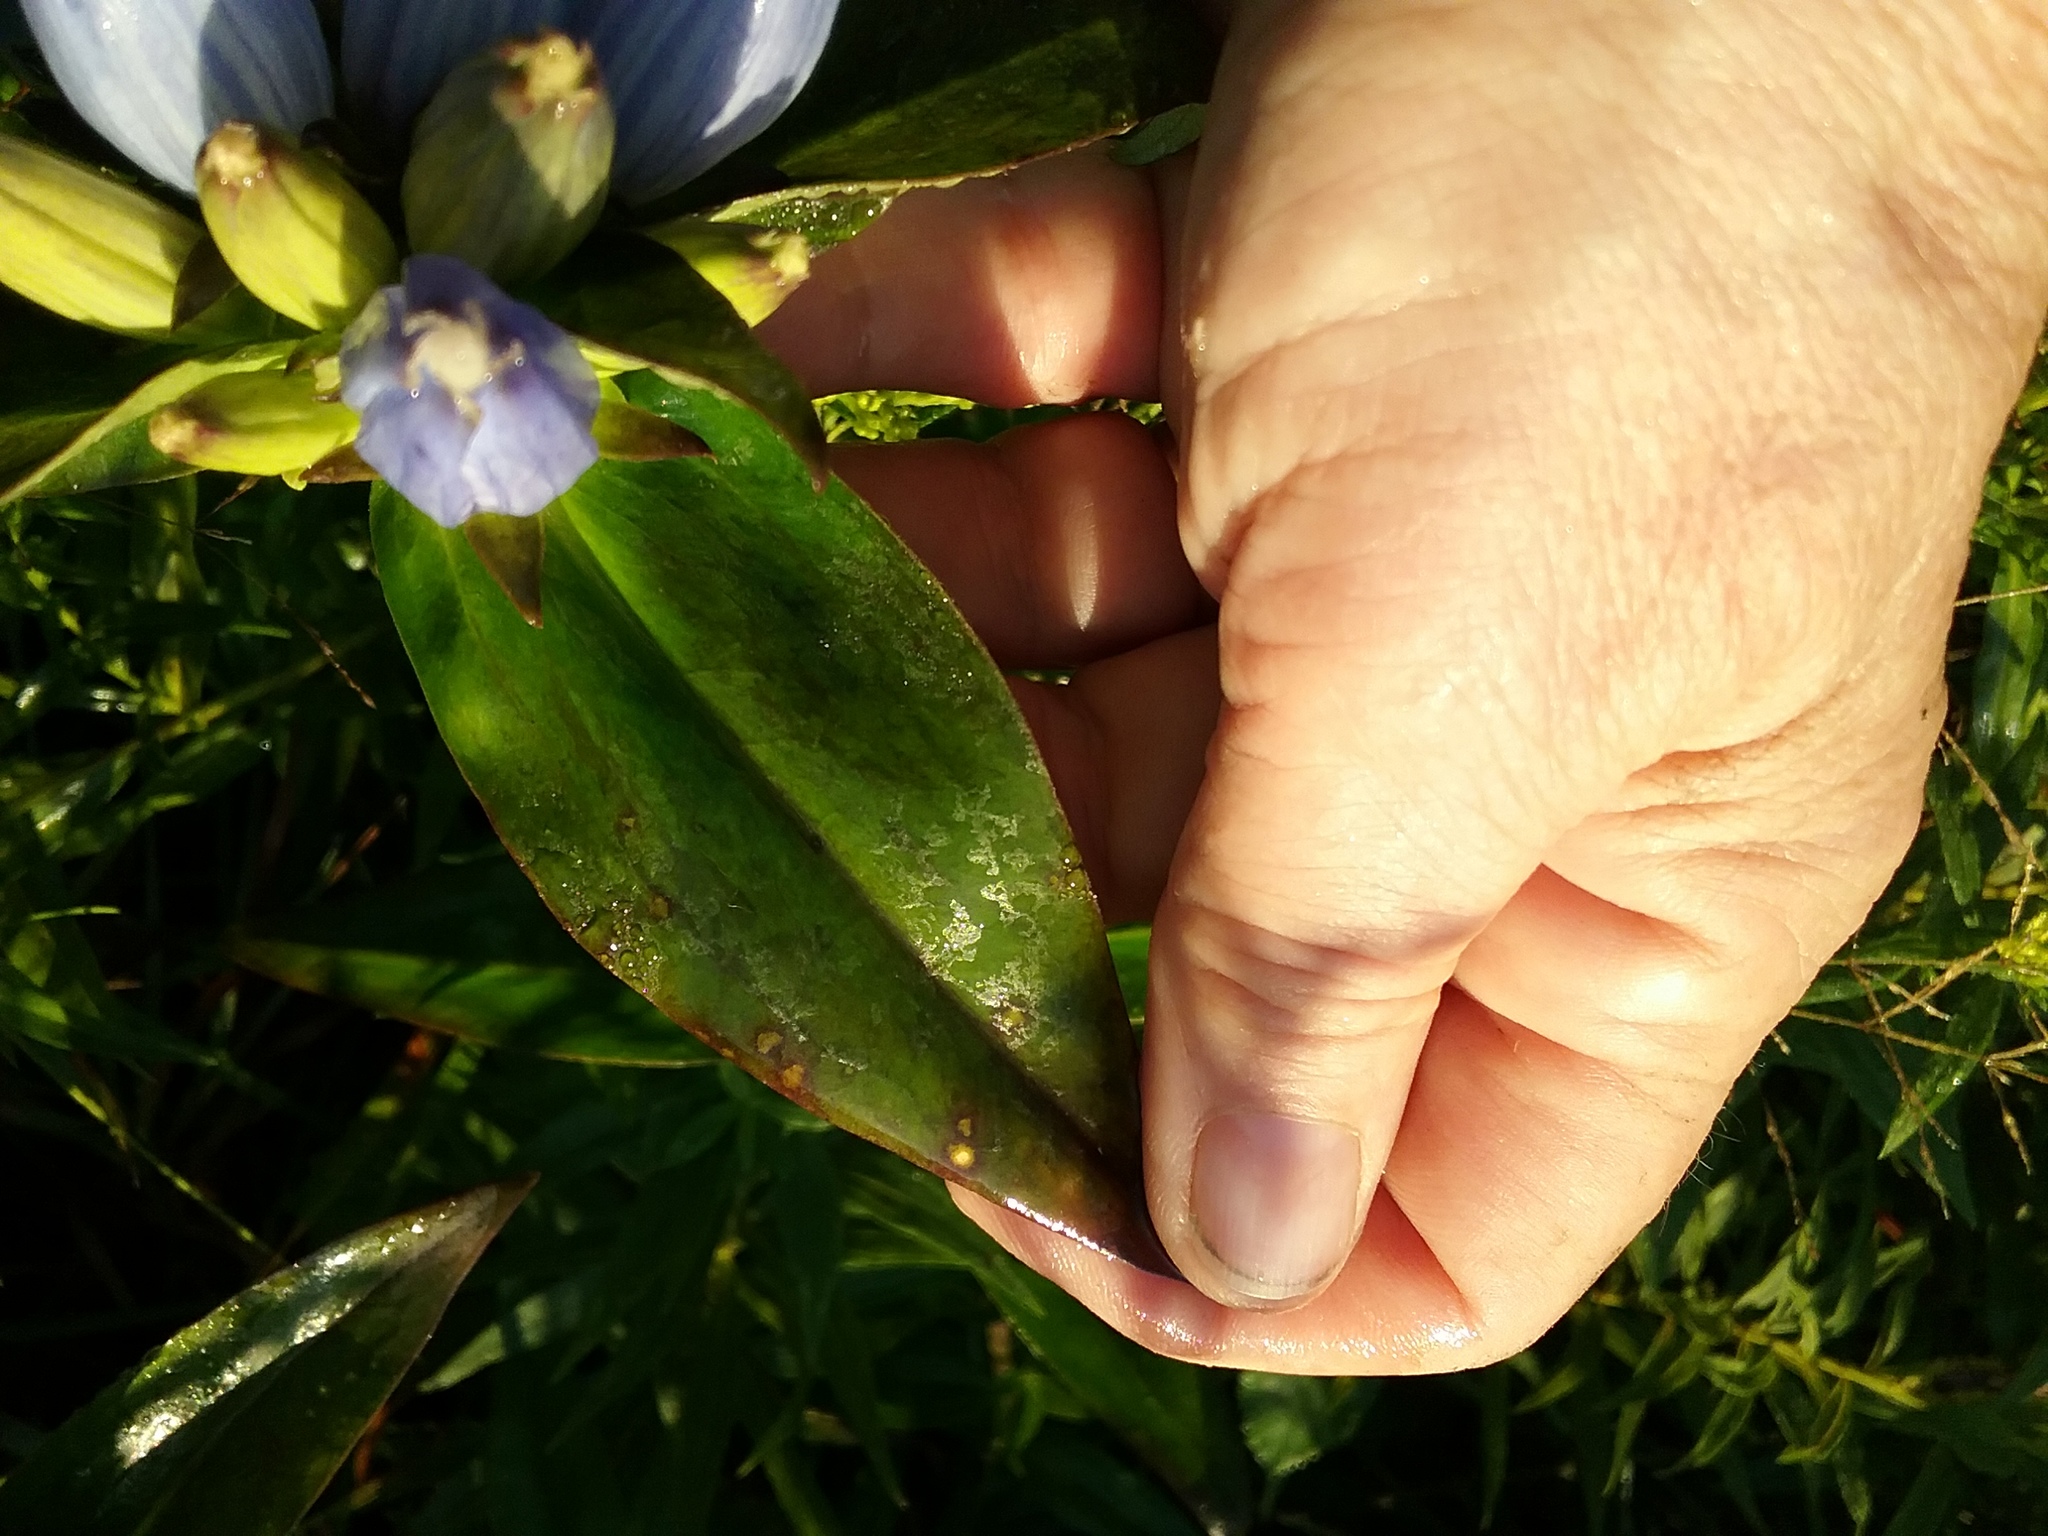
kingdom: Plantae
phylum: Tracheophyta
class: Magnoliopsida
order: Gentianales
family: Gentianaceae
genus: Gentiana
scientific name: Gentiana andrewsii
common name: Bottle gentian
